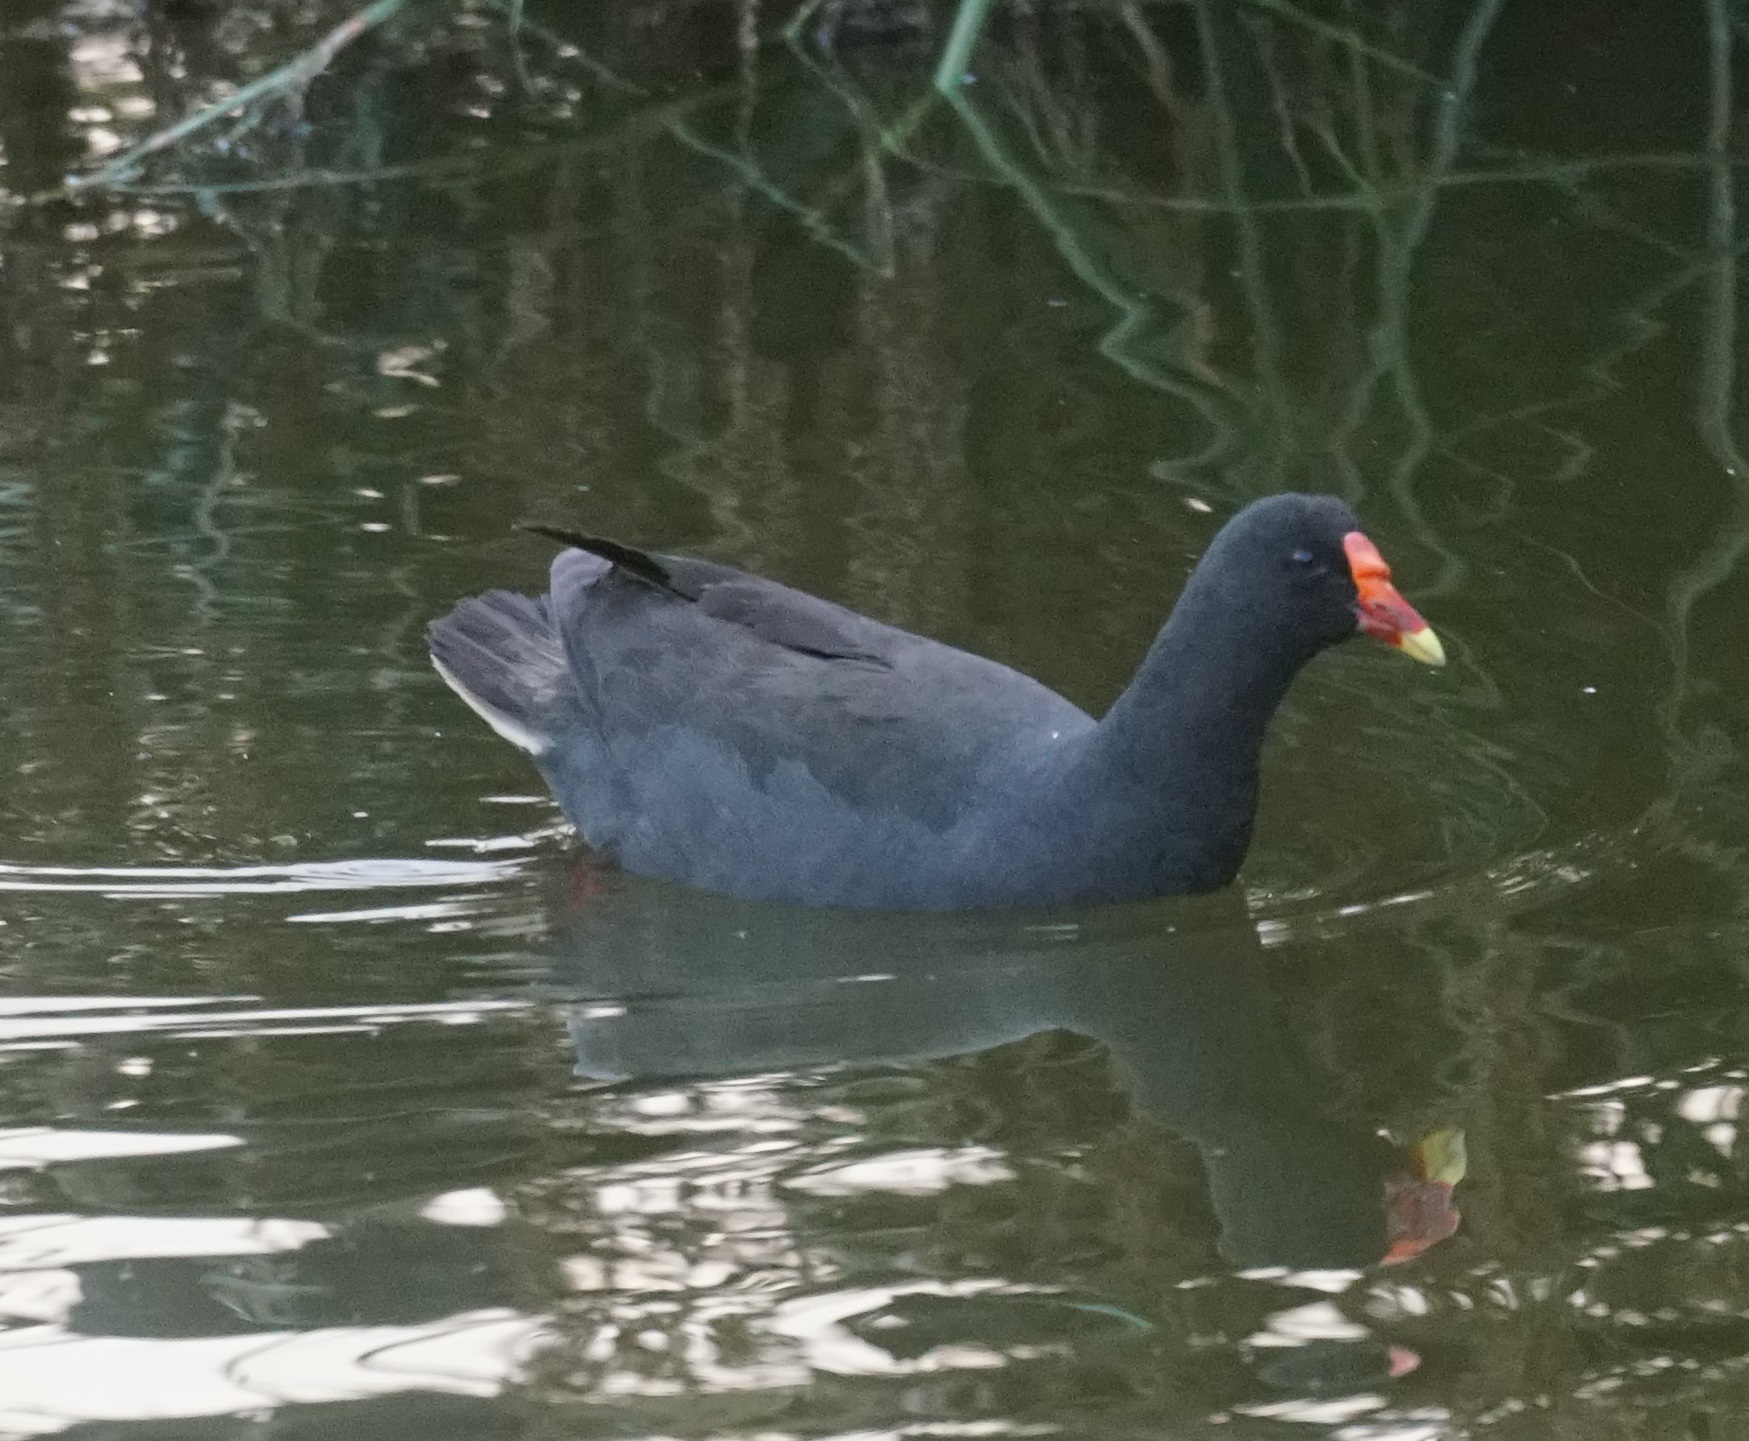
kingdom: Animalia
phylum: Chordata
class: Aves
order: Gruiformes
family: Rallidae
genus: Gallinula
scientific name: Gallinula tenebrosa
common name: Dusky moorhen
